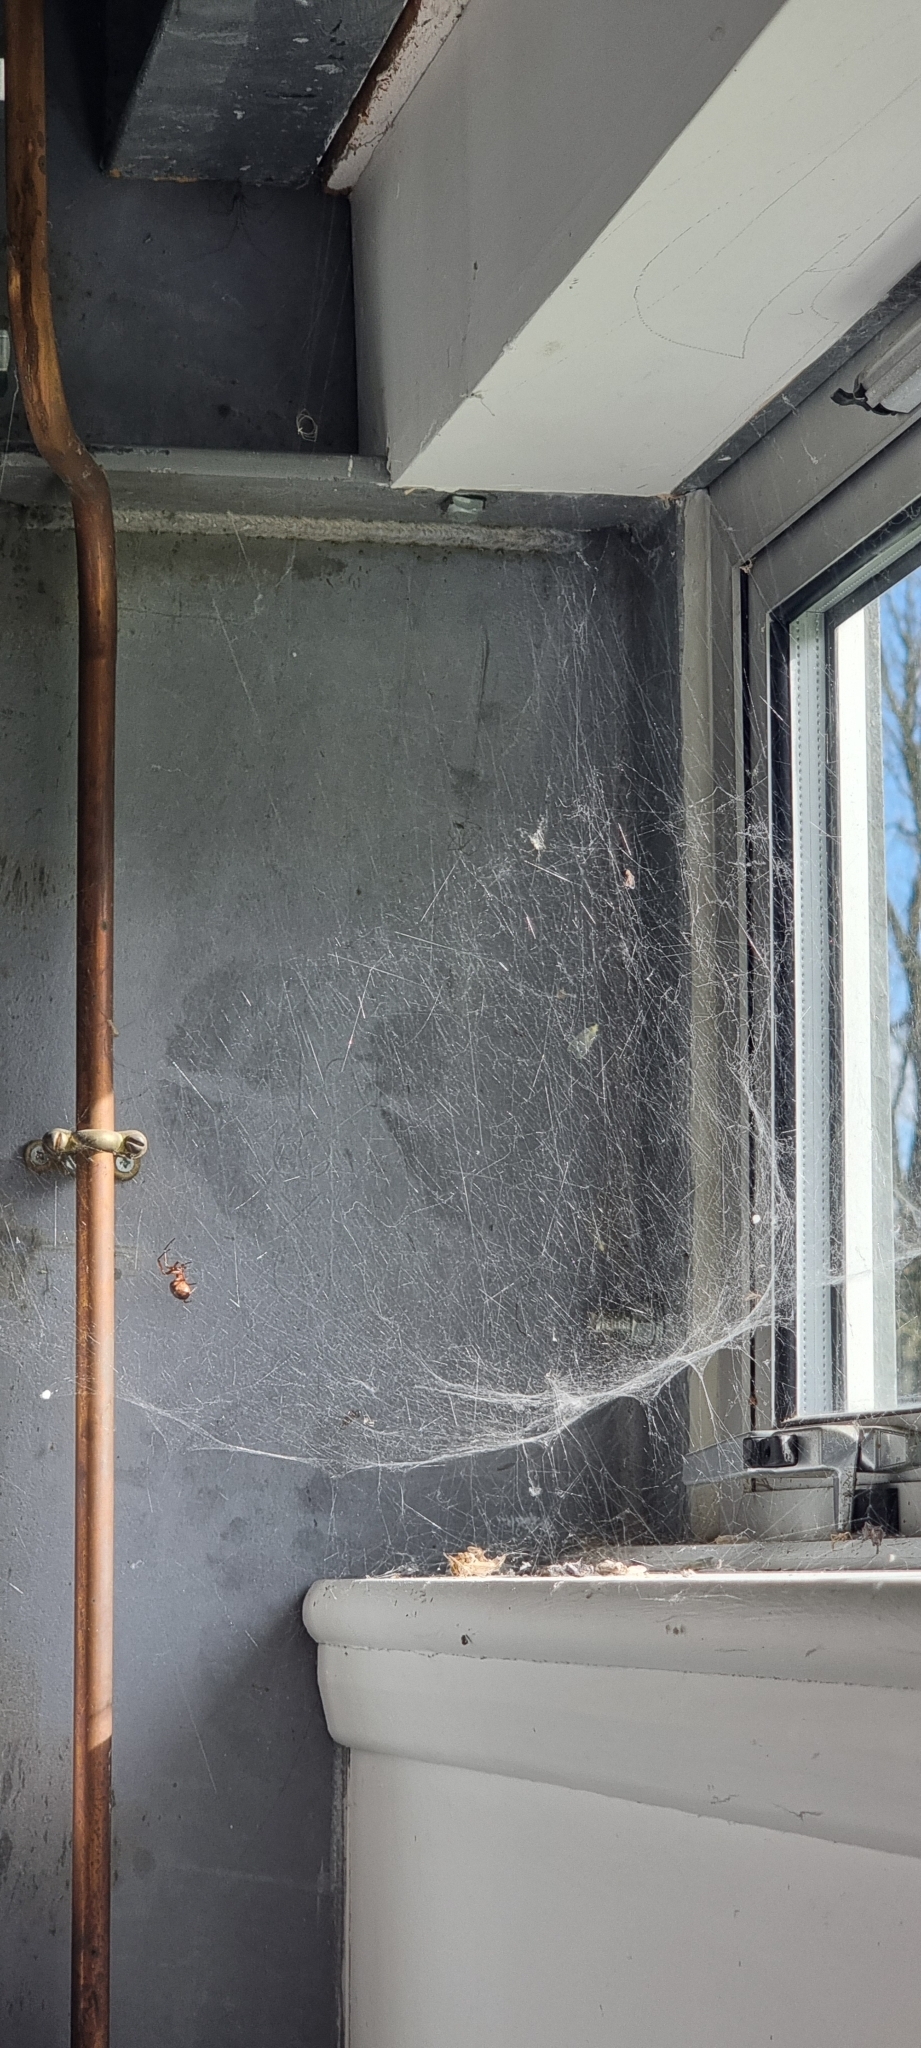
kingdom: Animalia
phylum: Arthropoda
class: Arachnida
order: Araneae
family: Theridiidae
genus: Steatoda
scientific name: Steatoda nobilis
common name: Cobweb weaver
